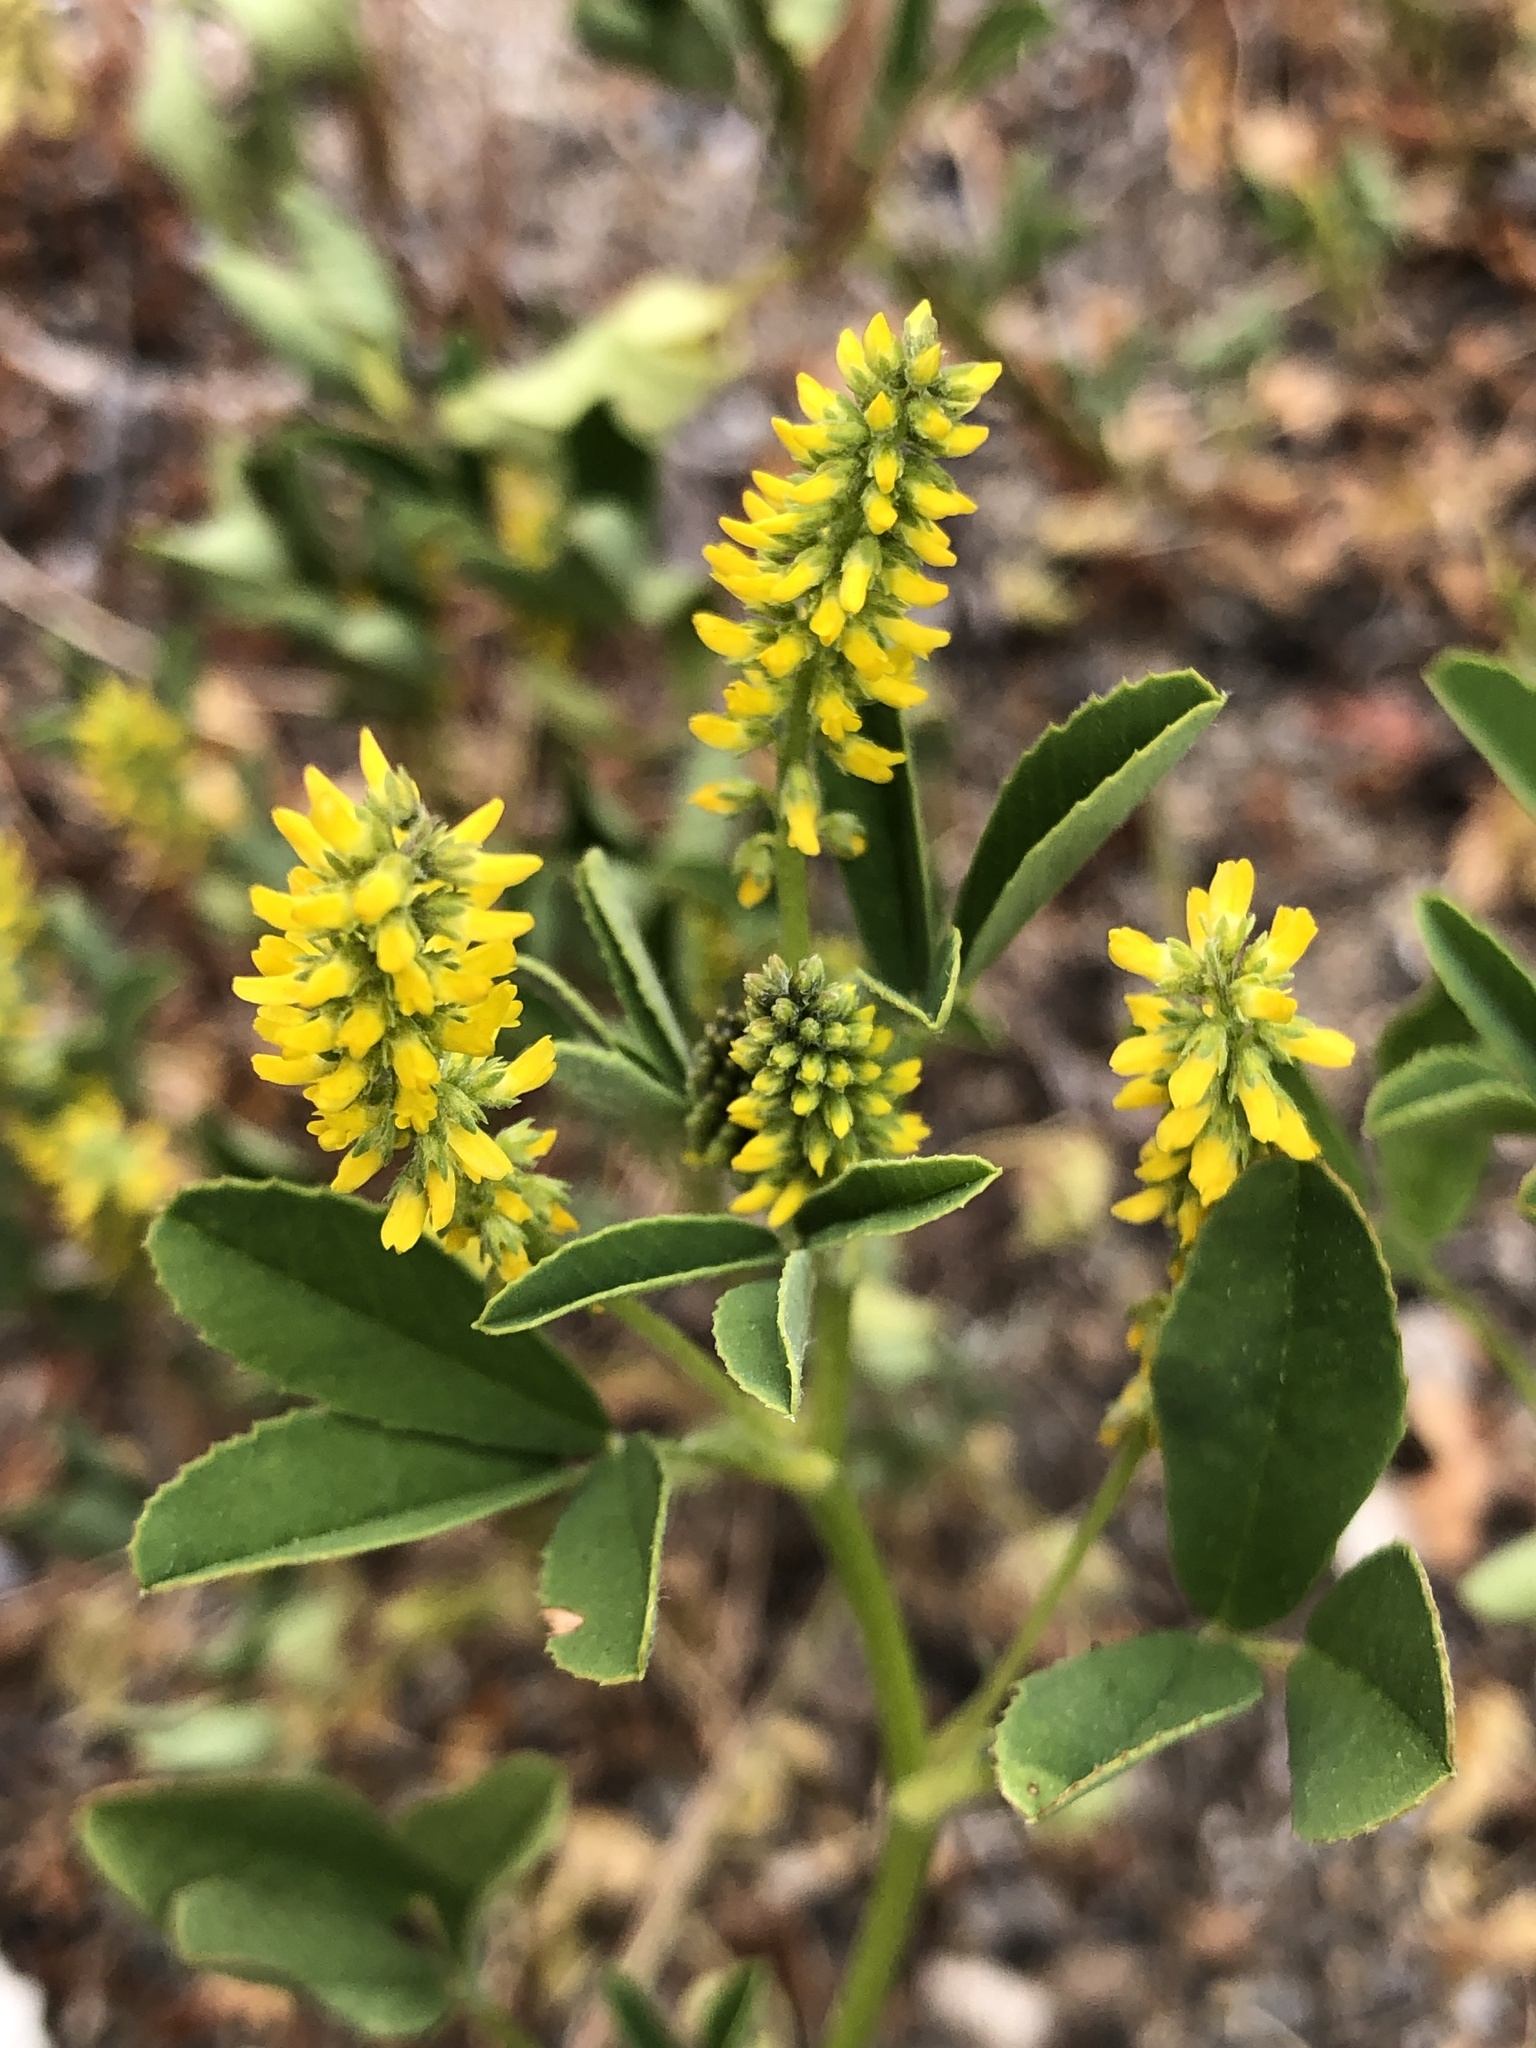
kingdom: Plantae
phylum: Tracheophyta
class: Magnoliopsida
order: Fabales
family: Fabaceae
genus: Melilotus
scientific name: Melilotus indicus
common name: Small melilot
